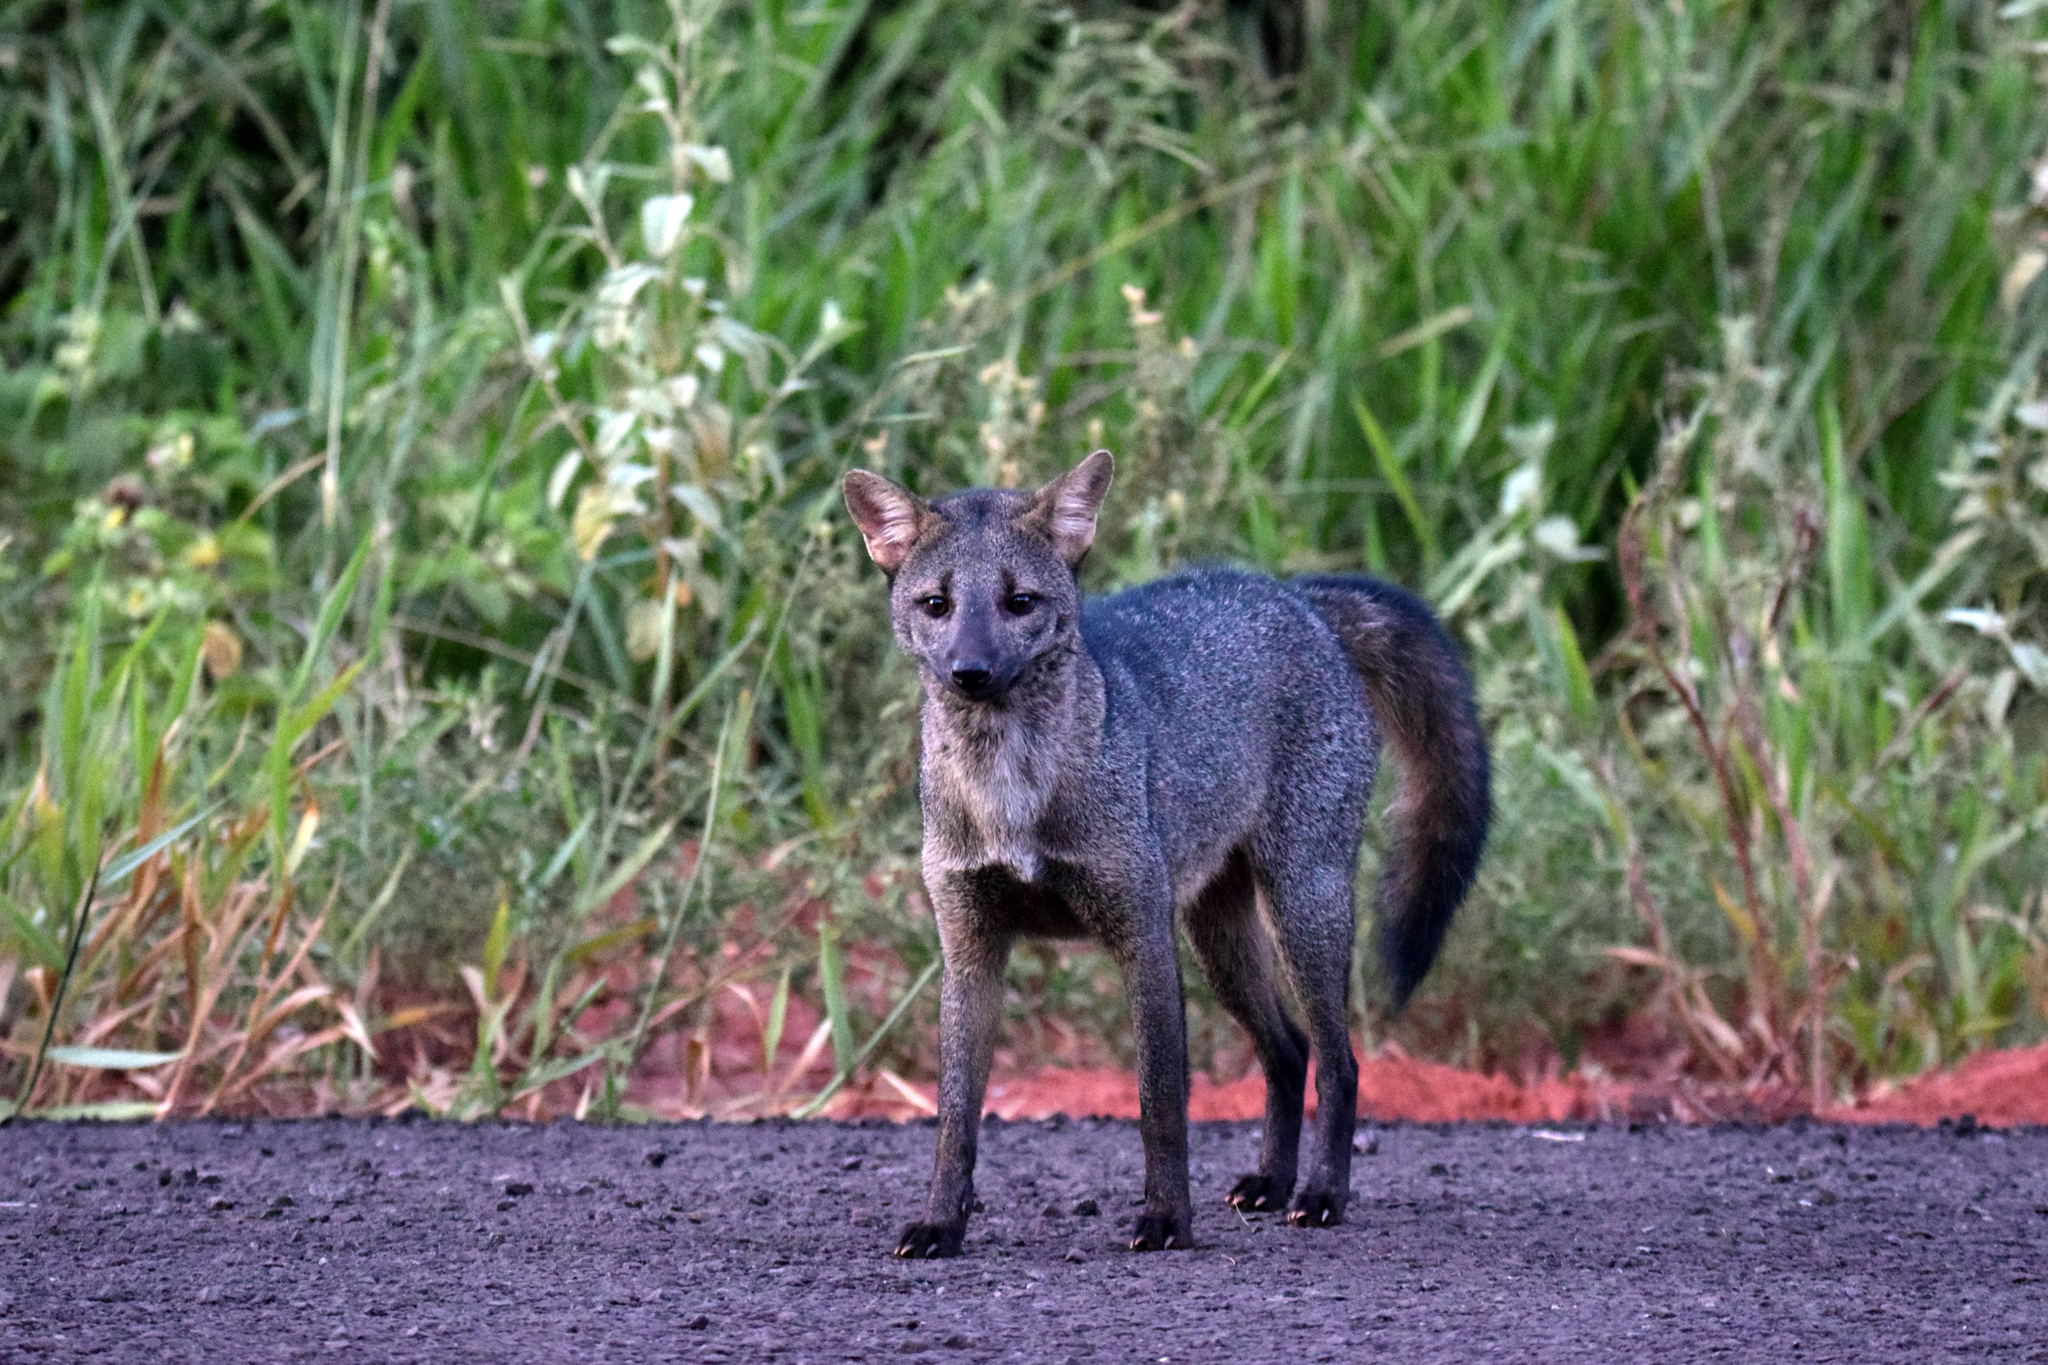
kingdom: Animalia
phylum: Chordata
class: Mammalia
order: Carnivora
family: Canidae
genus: Cerdocyon
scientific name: Cerdocyon thous
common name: Crab-eating fox
